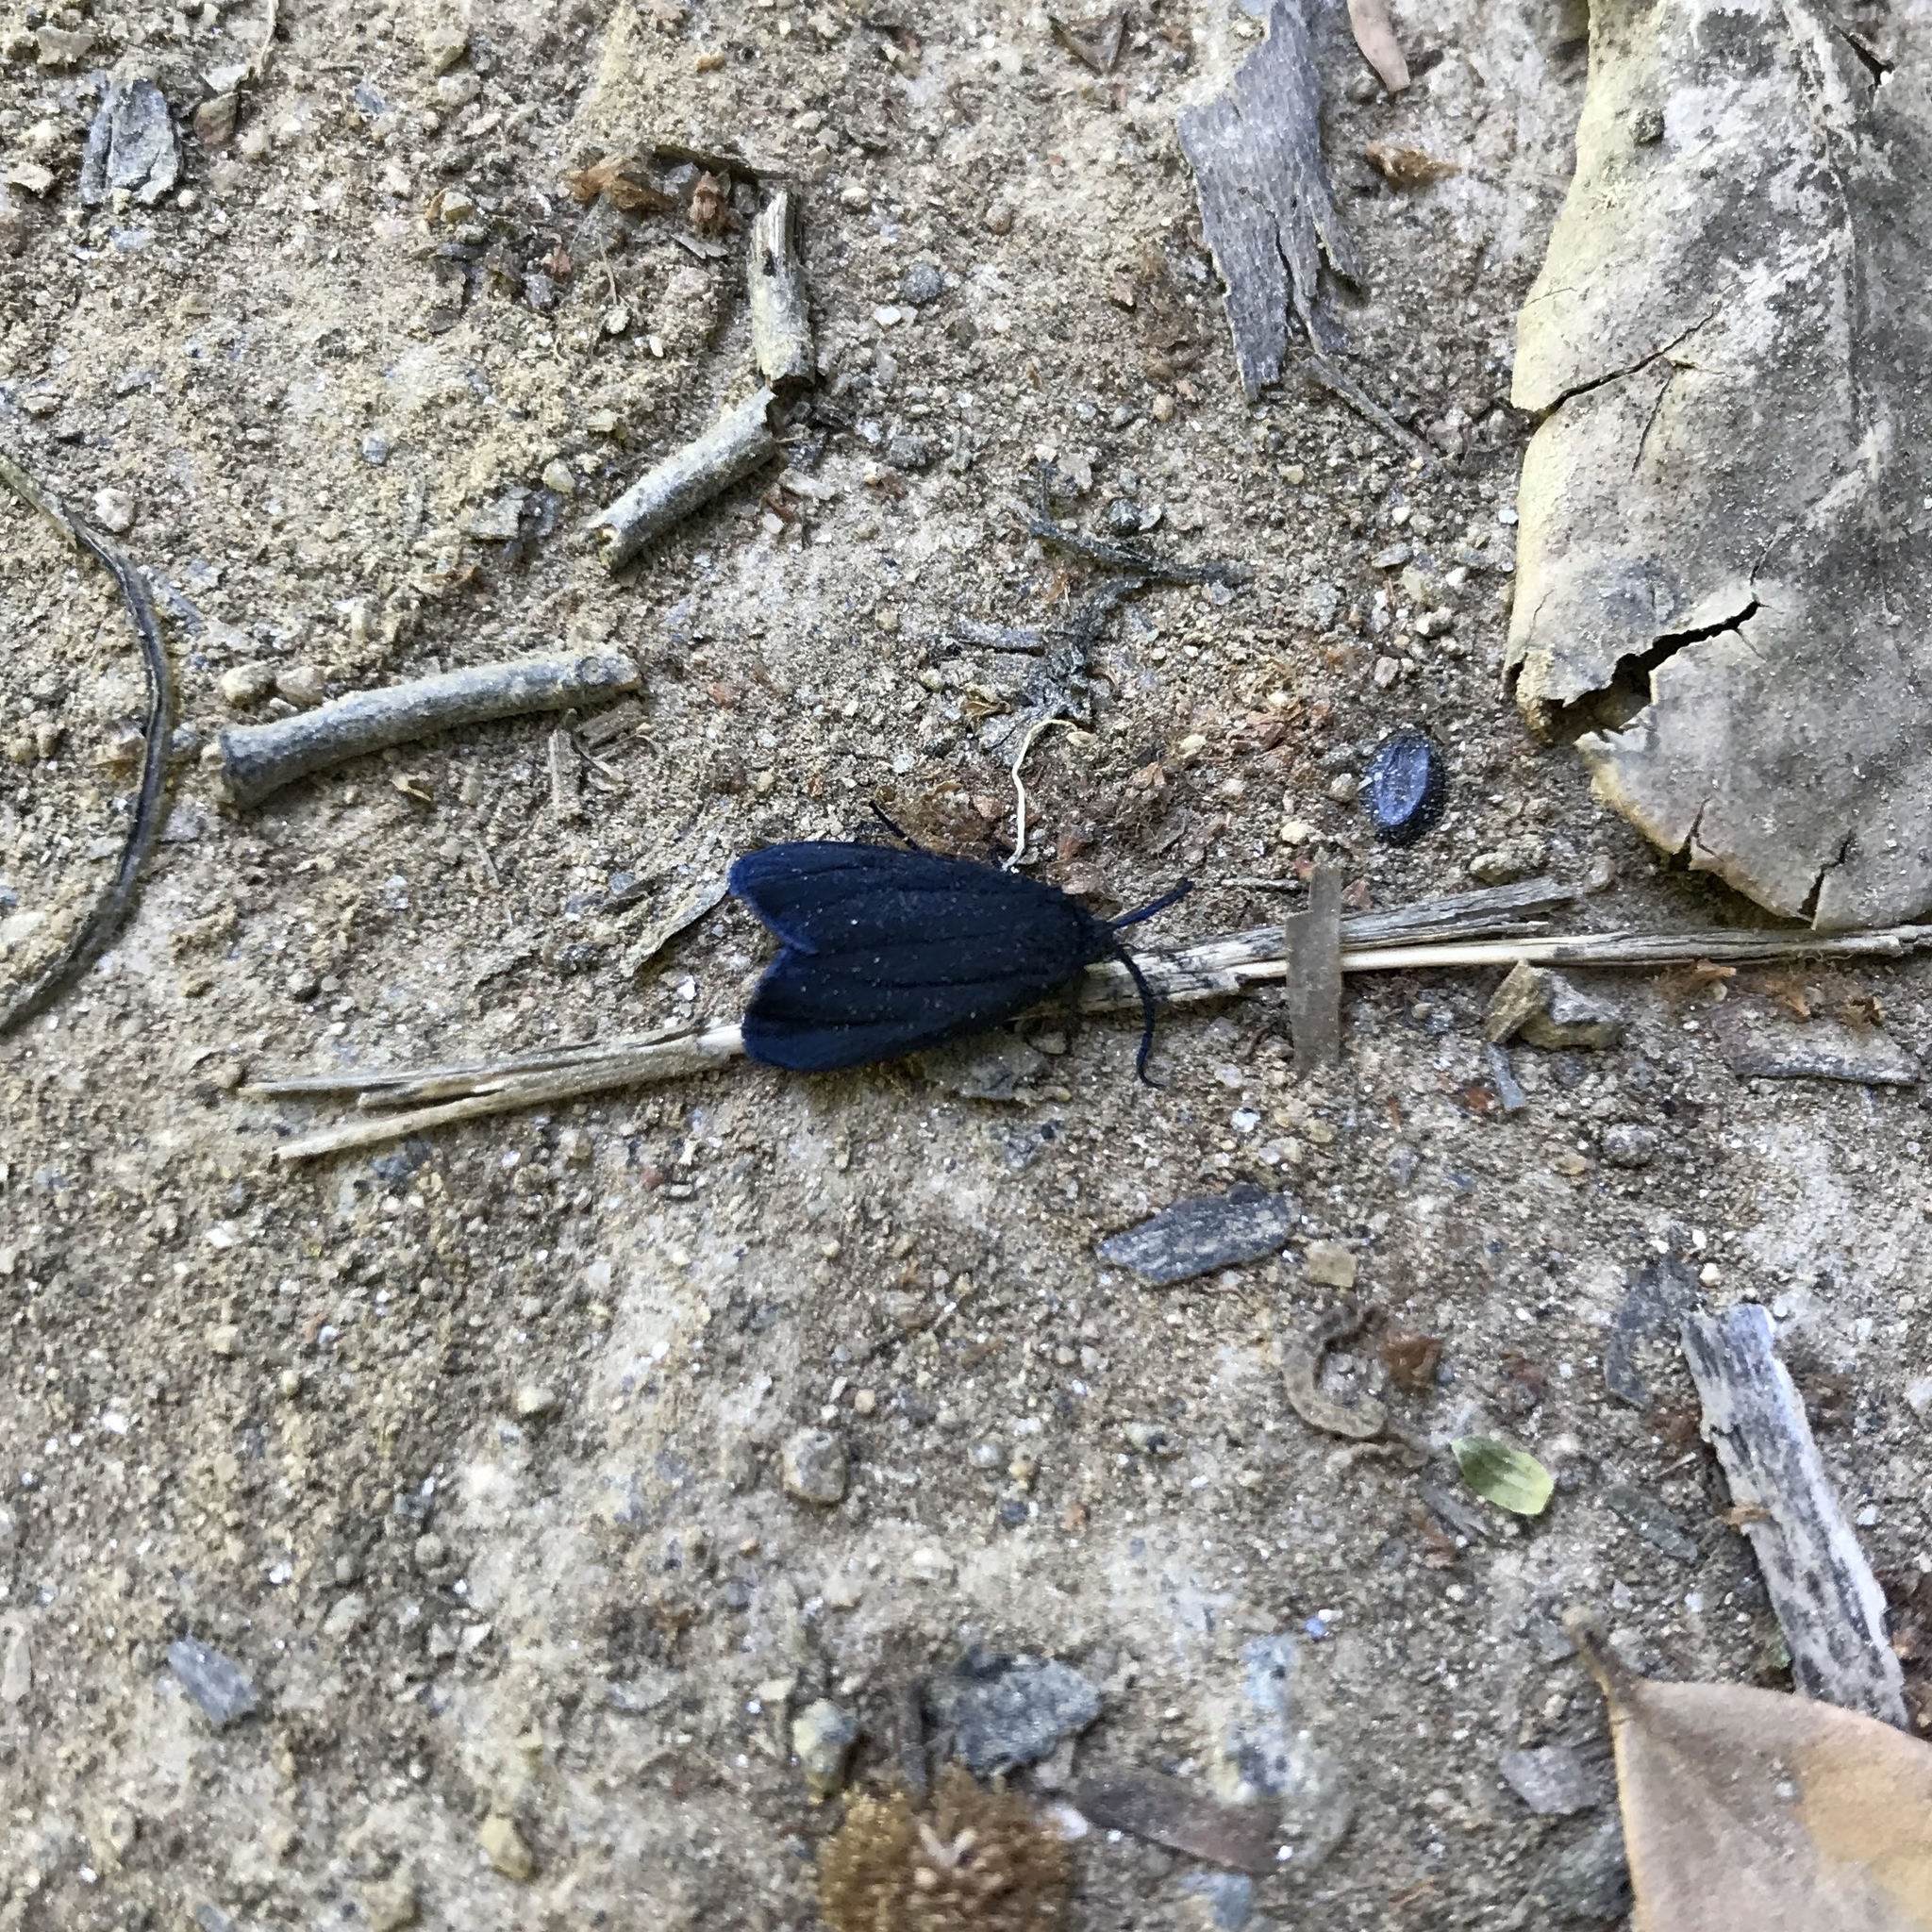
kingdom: Animalia
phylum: Arthropoda
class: Insecta
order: Lepidoptera
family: Zygaenidae
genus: Malamblia
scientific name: Malamblia
